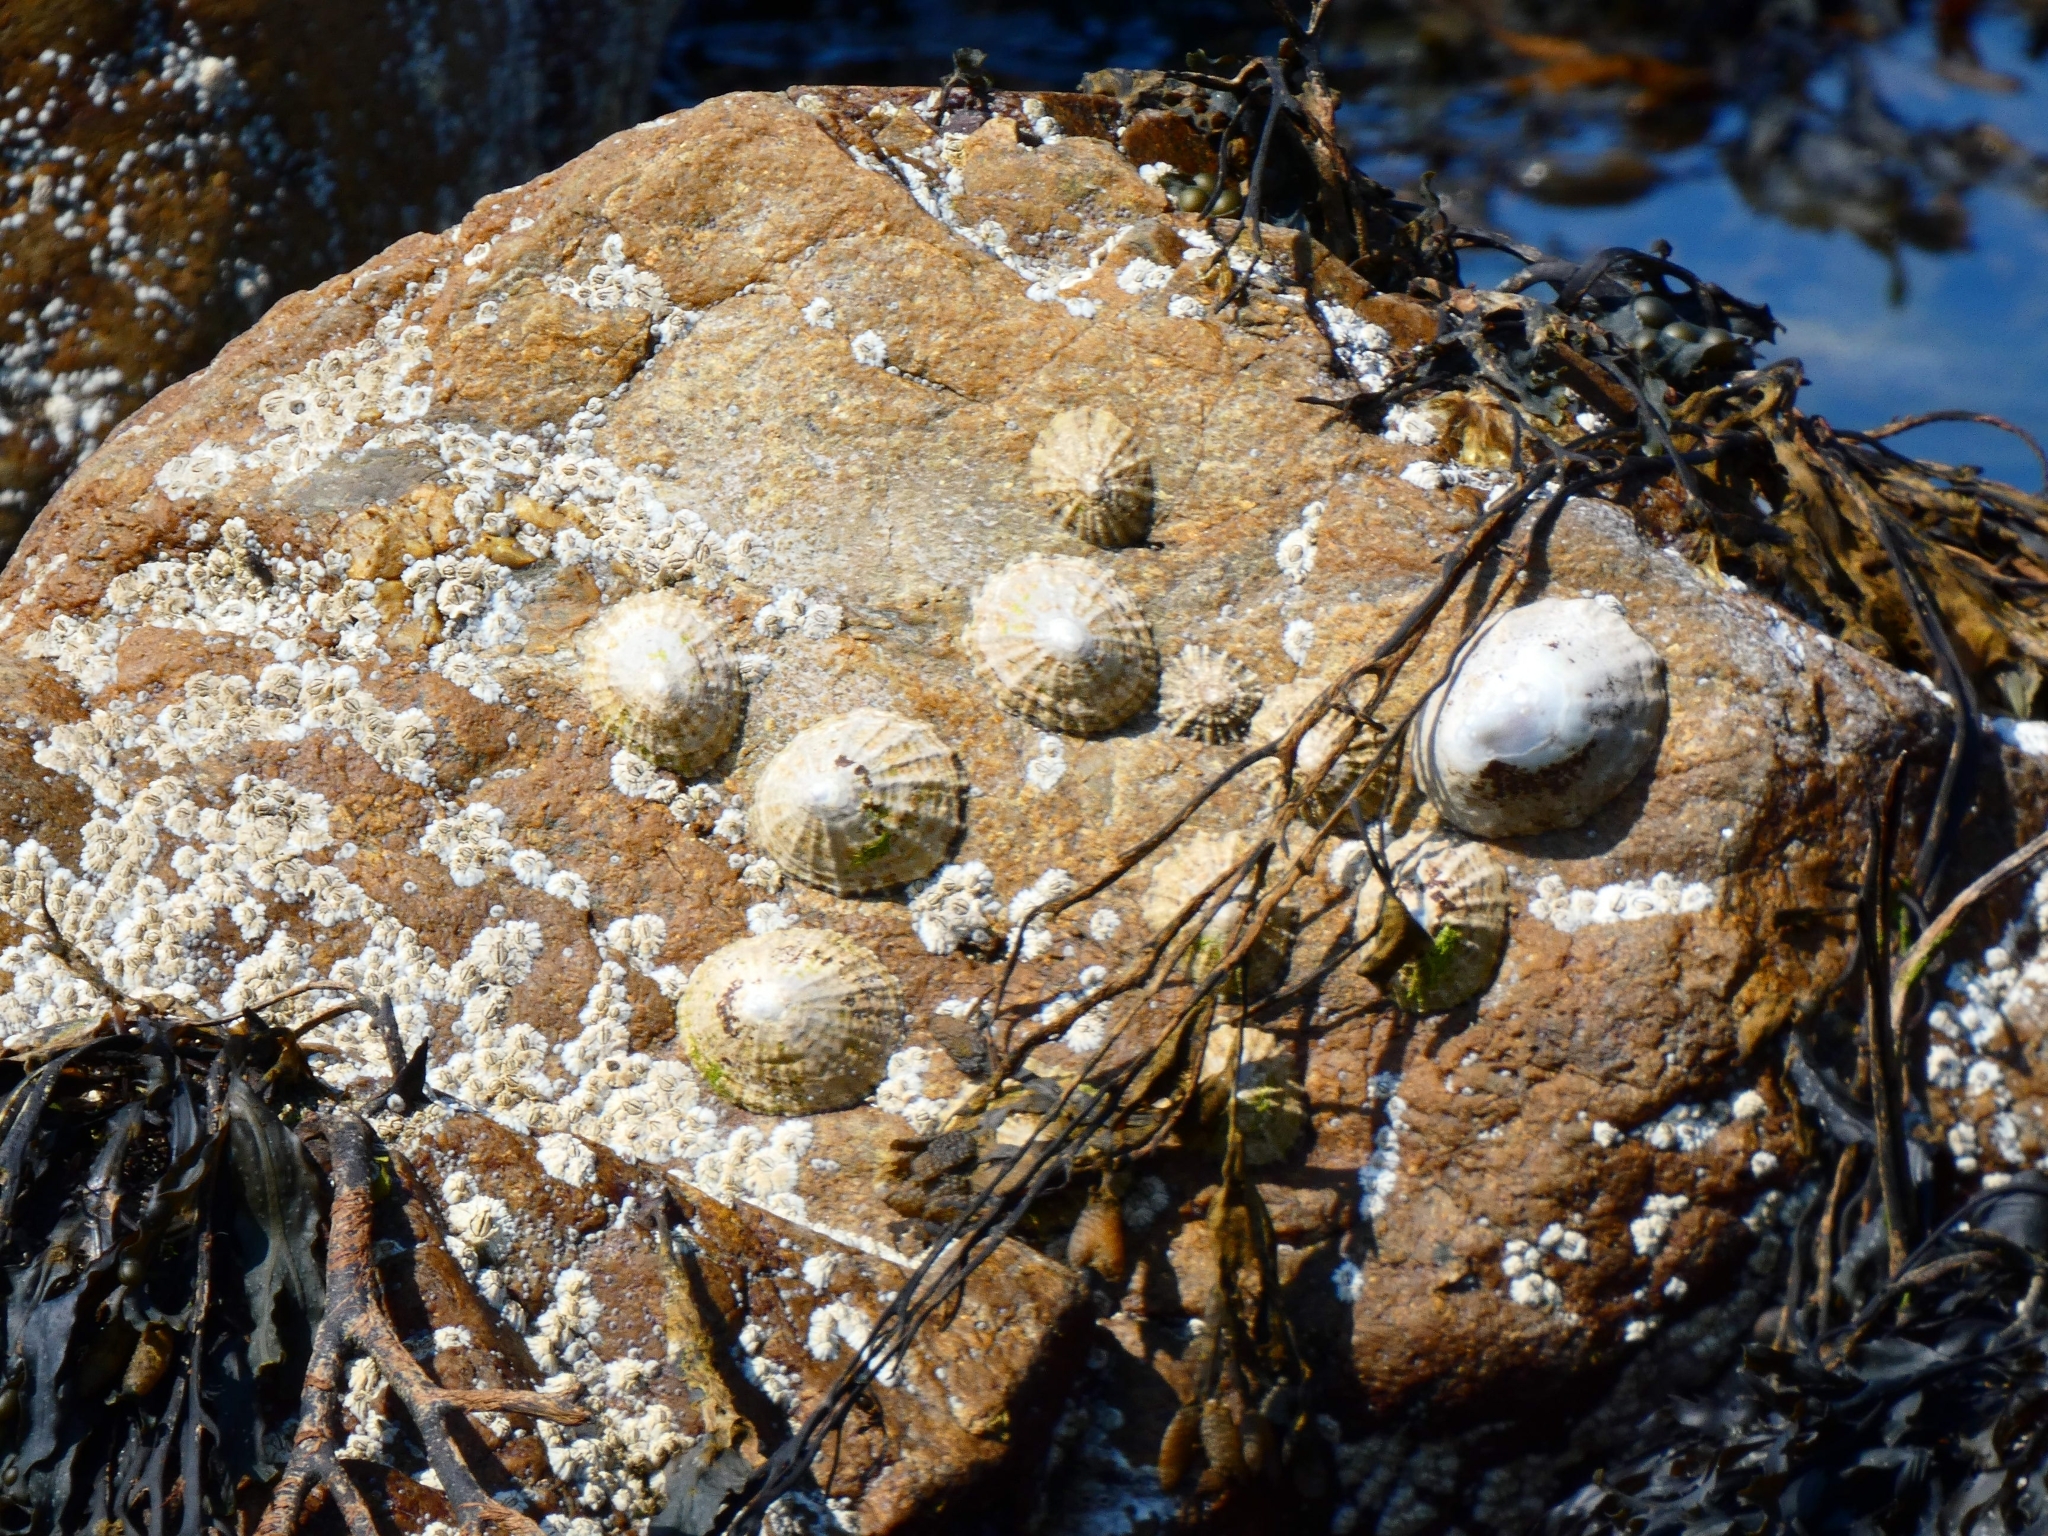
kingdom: Animalia
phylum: Mollusca
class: Gastropoda
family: Patellidae
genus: Patella
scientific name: Patella vulgata
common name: Common limpet
